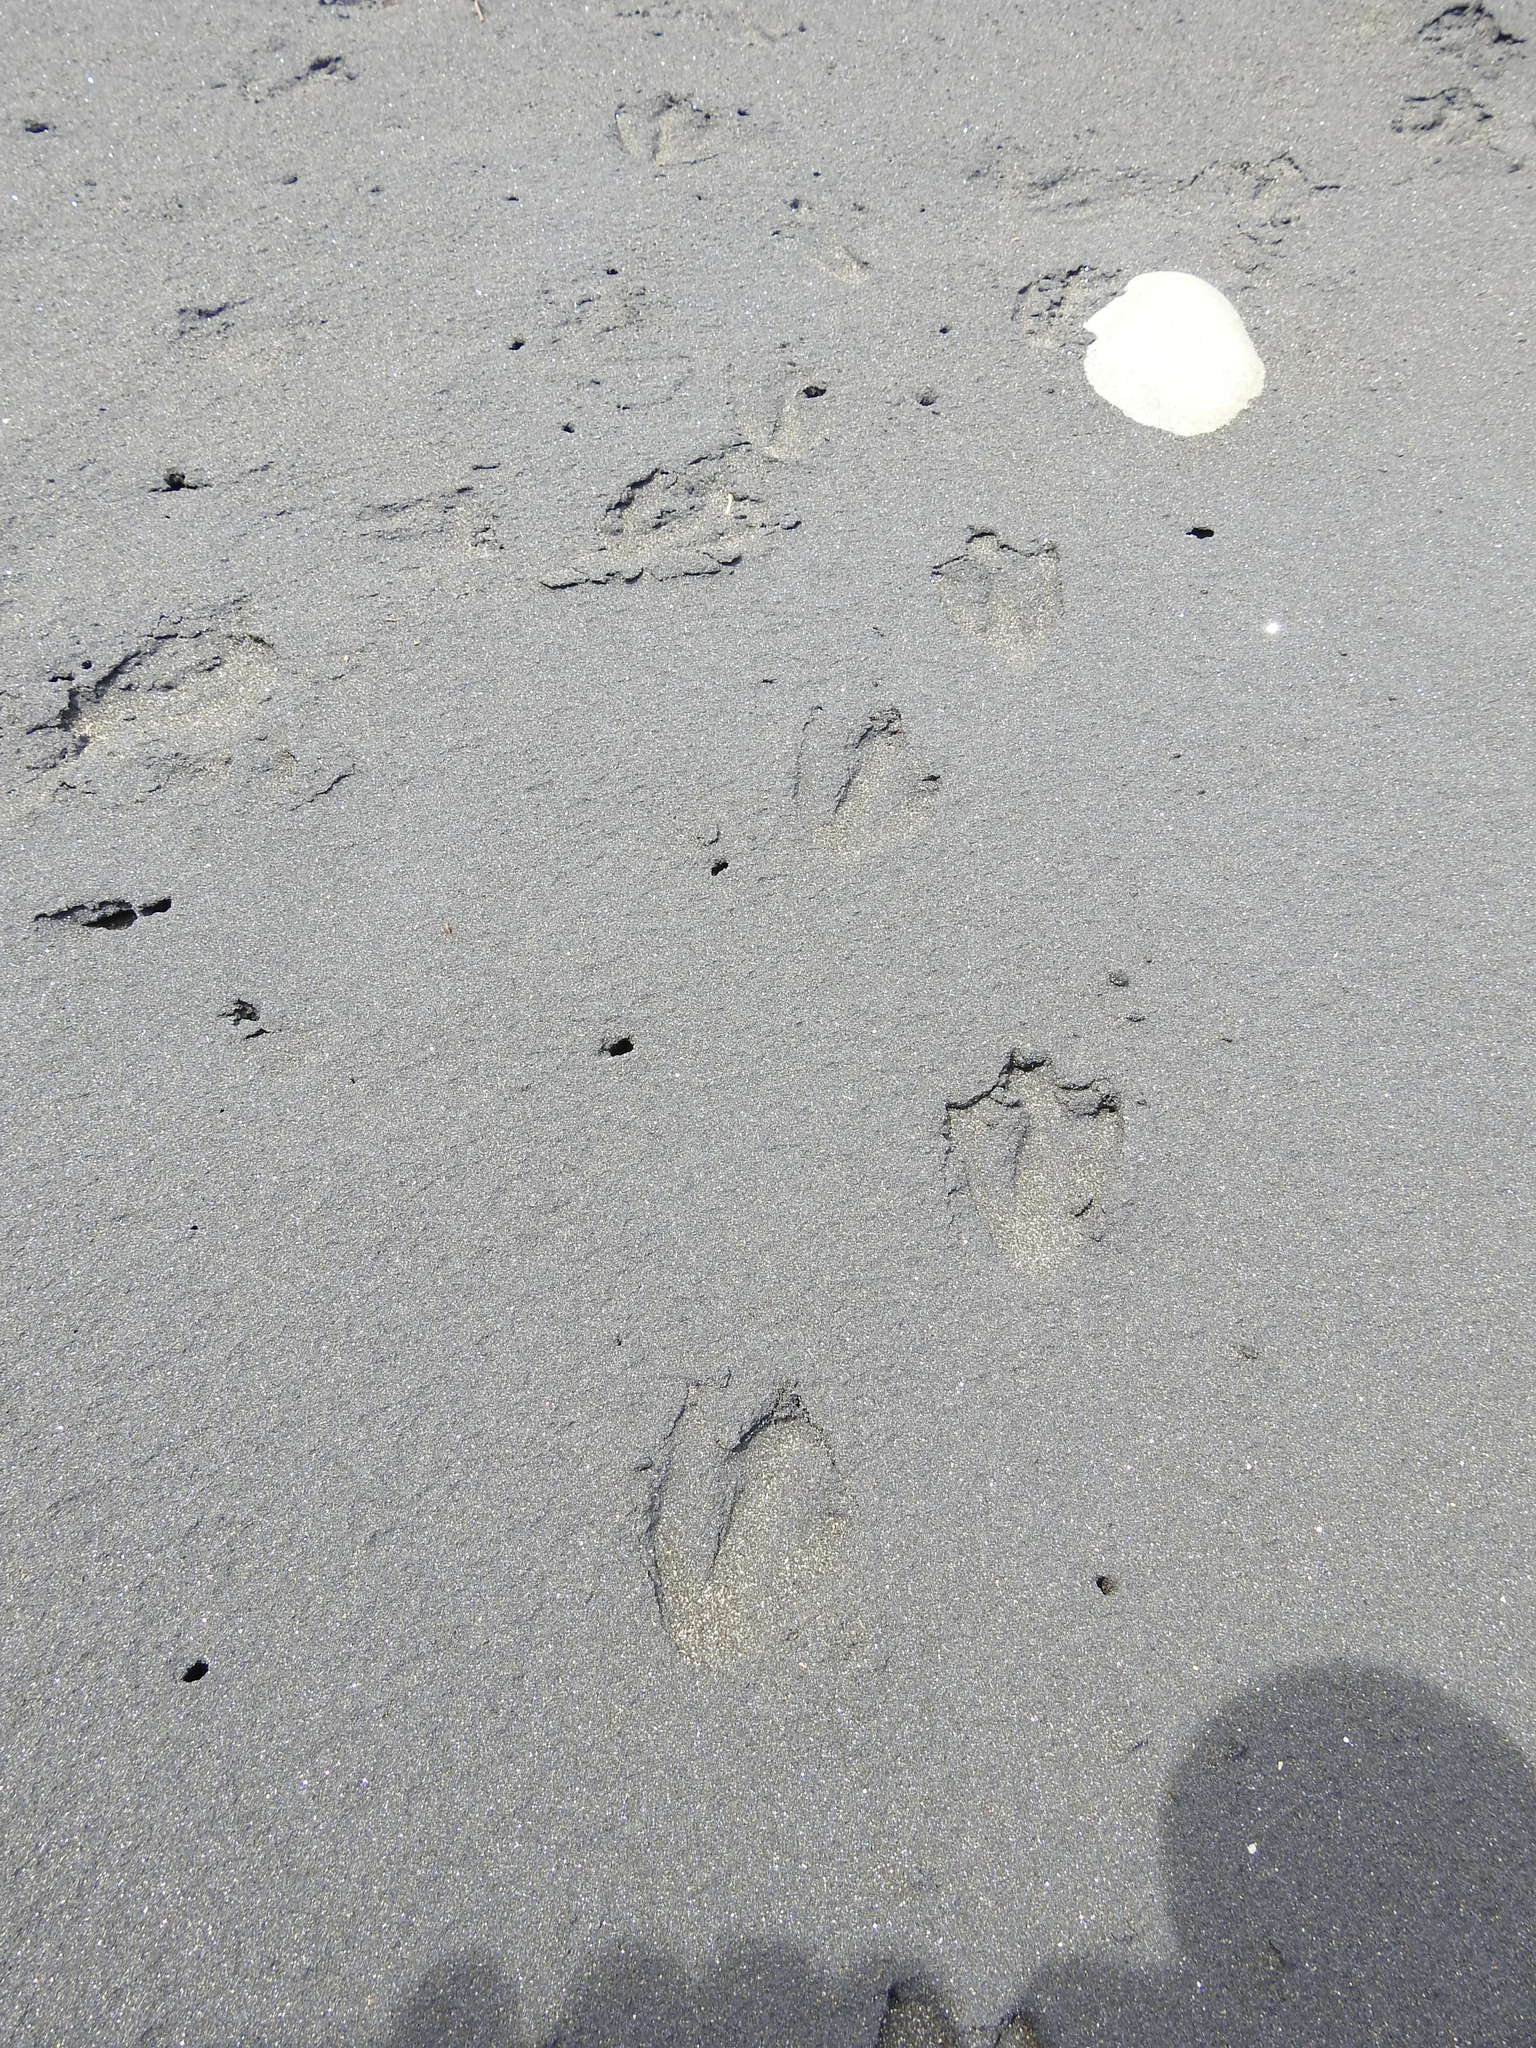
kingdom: Animalia
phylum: Chordata
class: Aves
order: Sphenisciformes
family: Spheniscidae
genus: Eudyptula
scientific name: Eudyptula minor
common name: Little penguin
